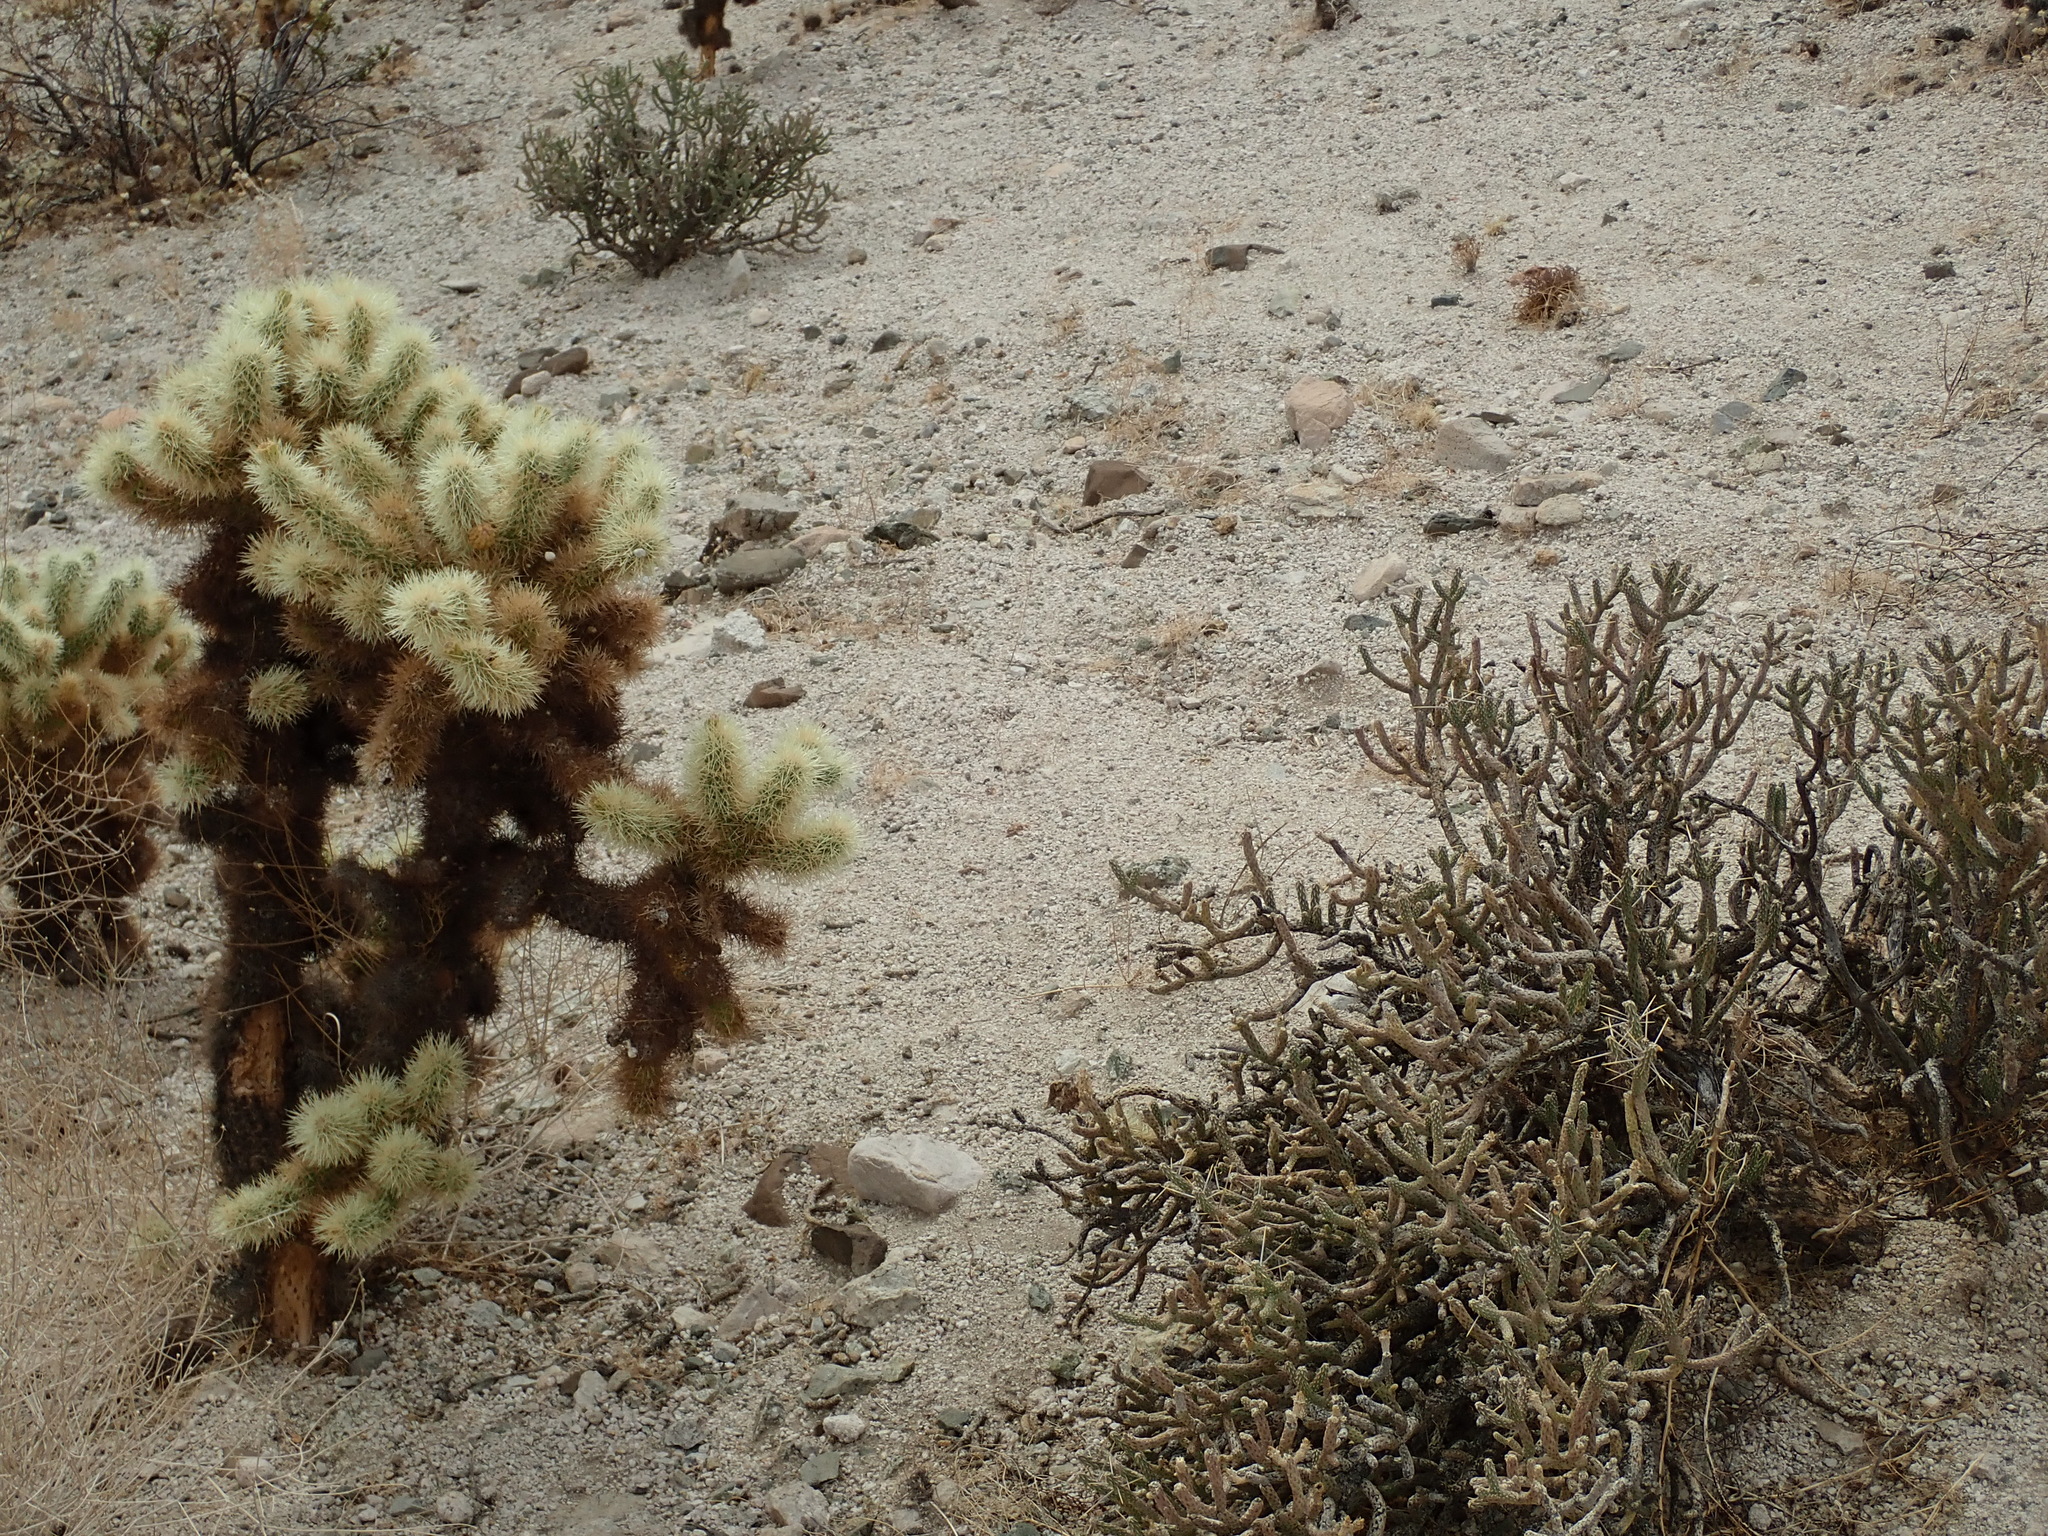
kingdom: Plantae
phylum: Tracheophyta
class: Magnoliopsida
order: Caryophyllales
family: Cactaceae
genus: Cylindropuntia
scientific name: Cylindropuntia ramosissima
